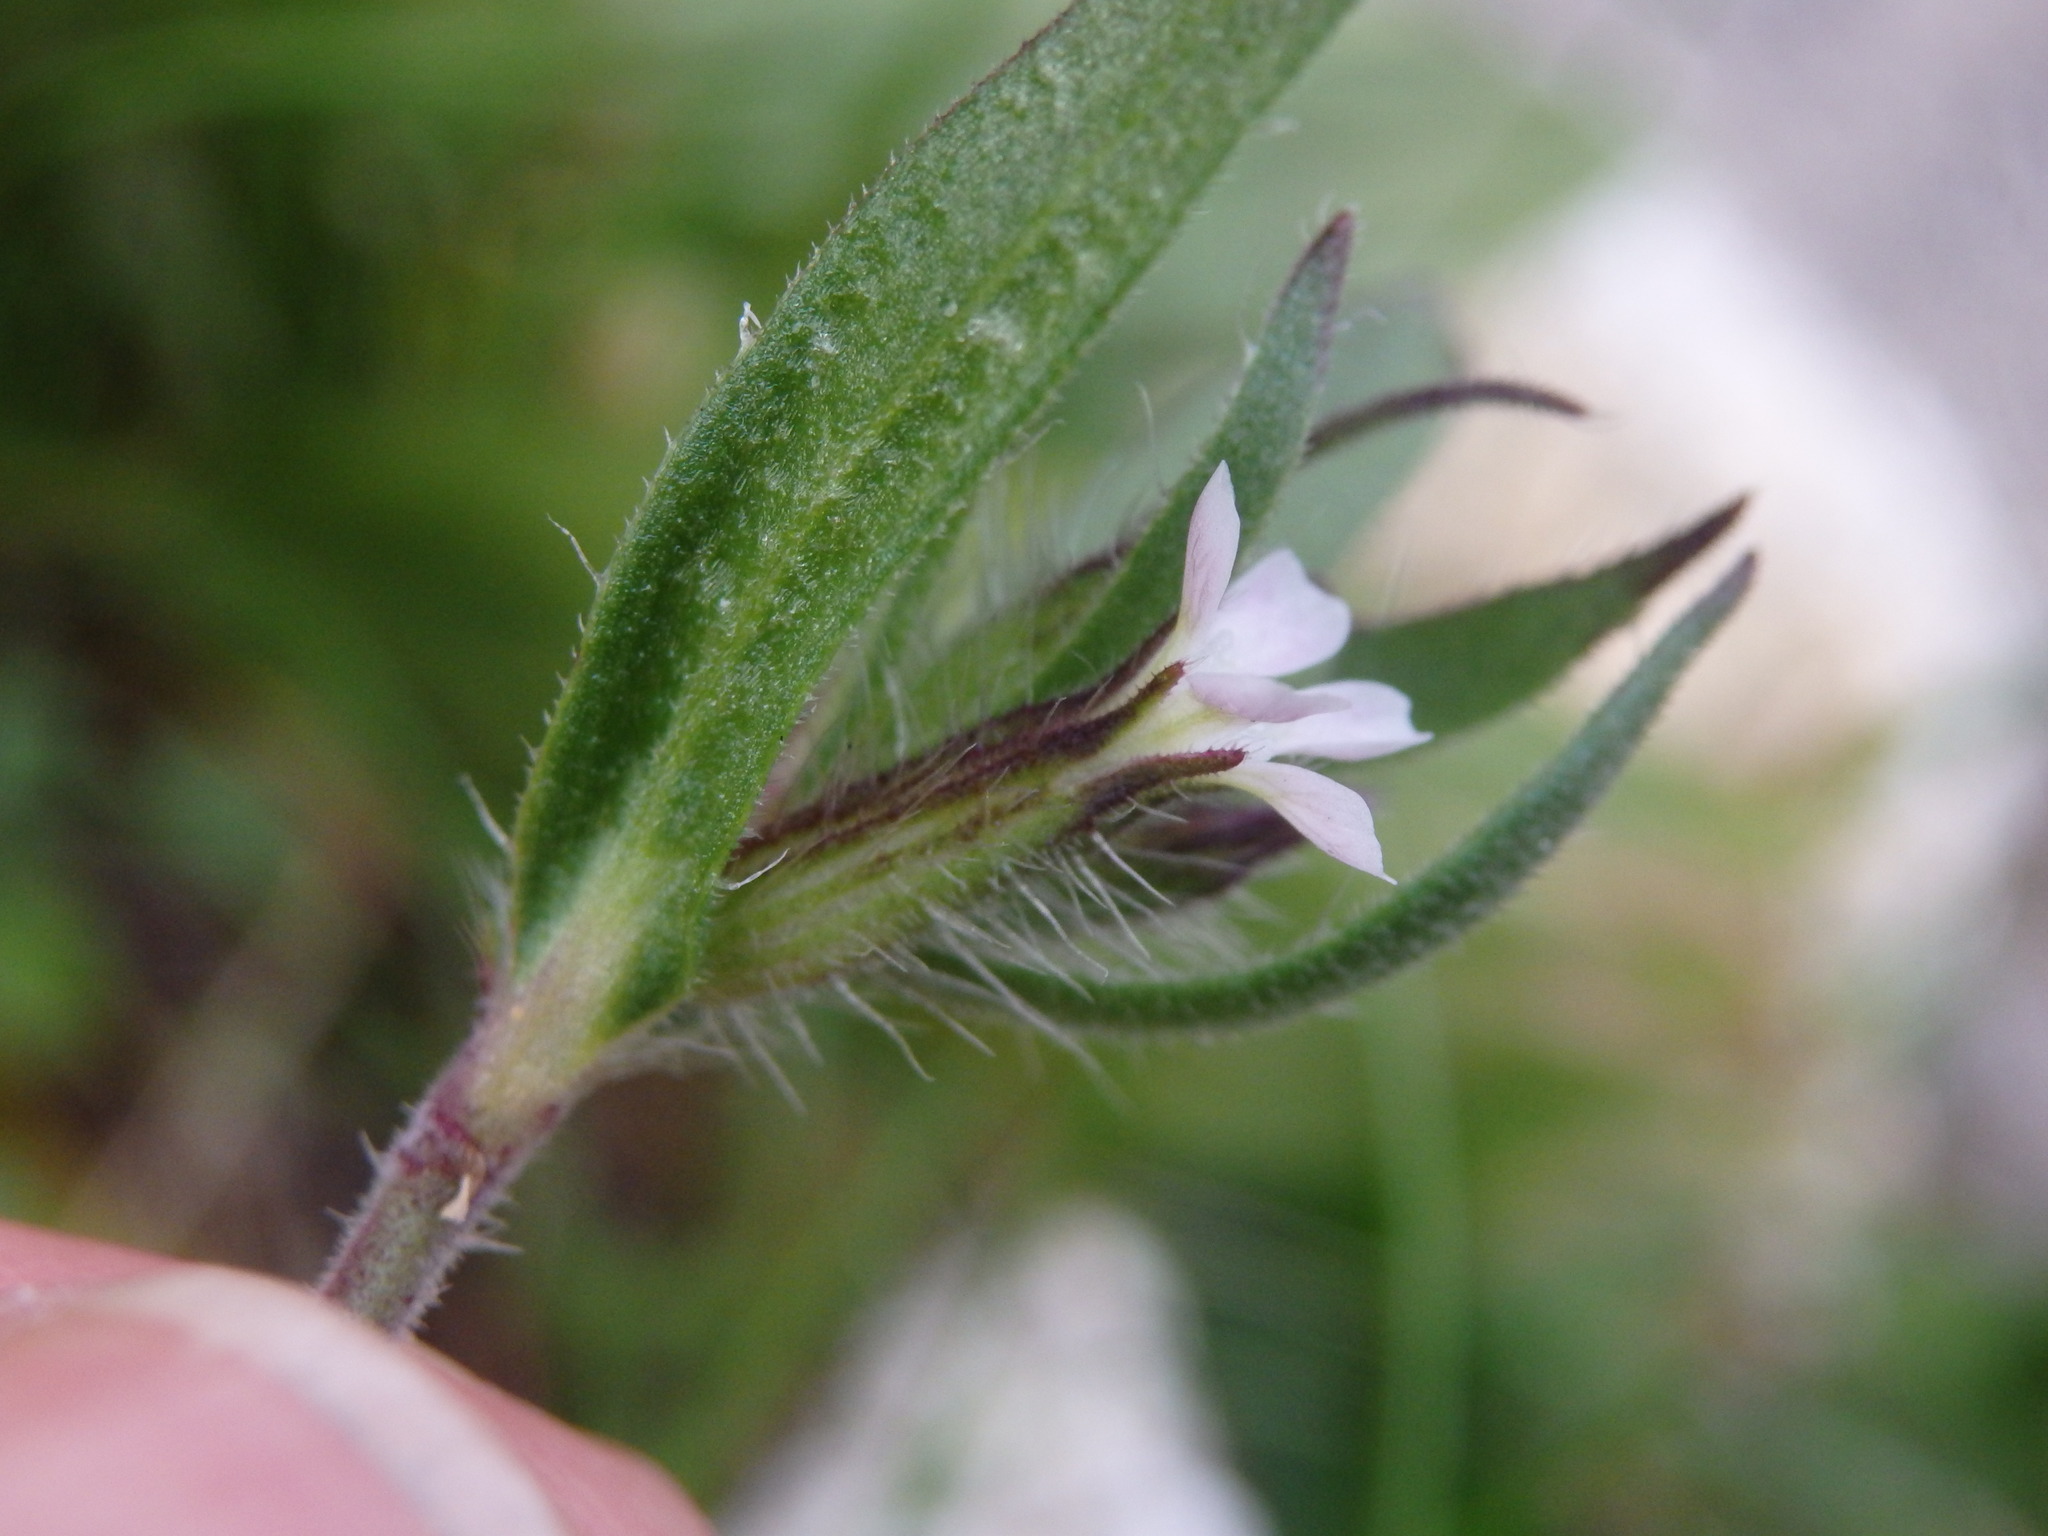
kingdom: Plantae
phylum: Tracheophyta
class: Magnoliopsida
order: Caryophyllales
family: Caryophyllaceae
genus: Silene
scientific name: Silene gallica
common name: Small-flowered catchfly
